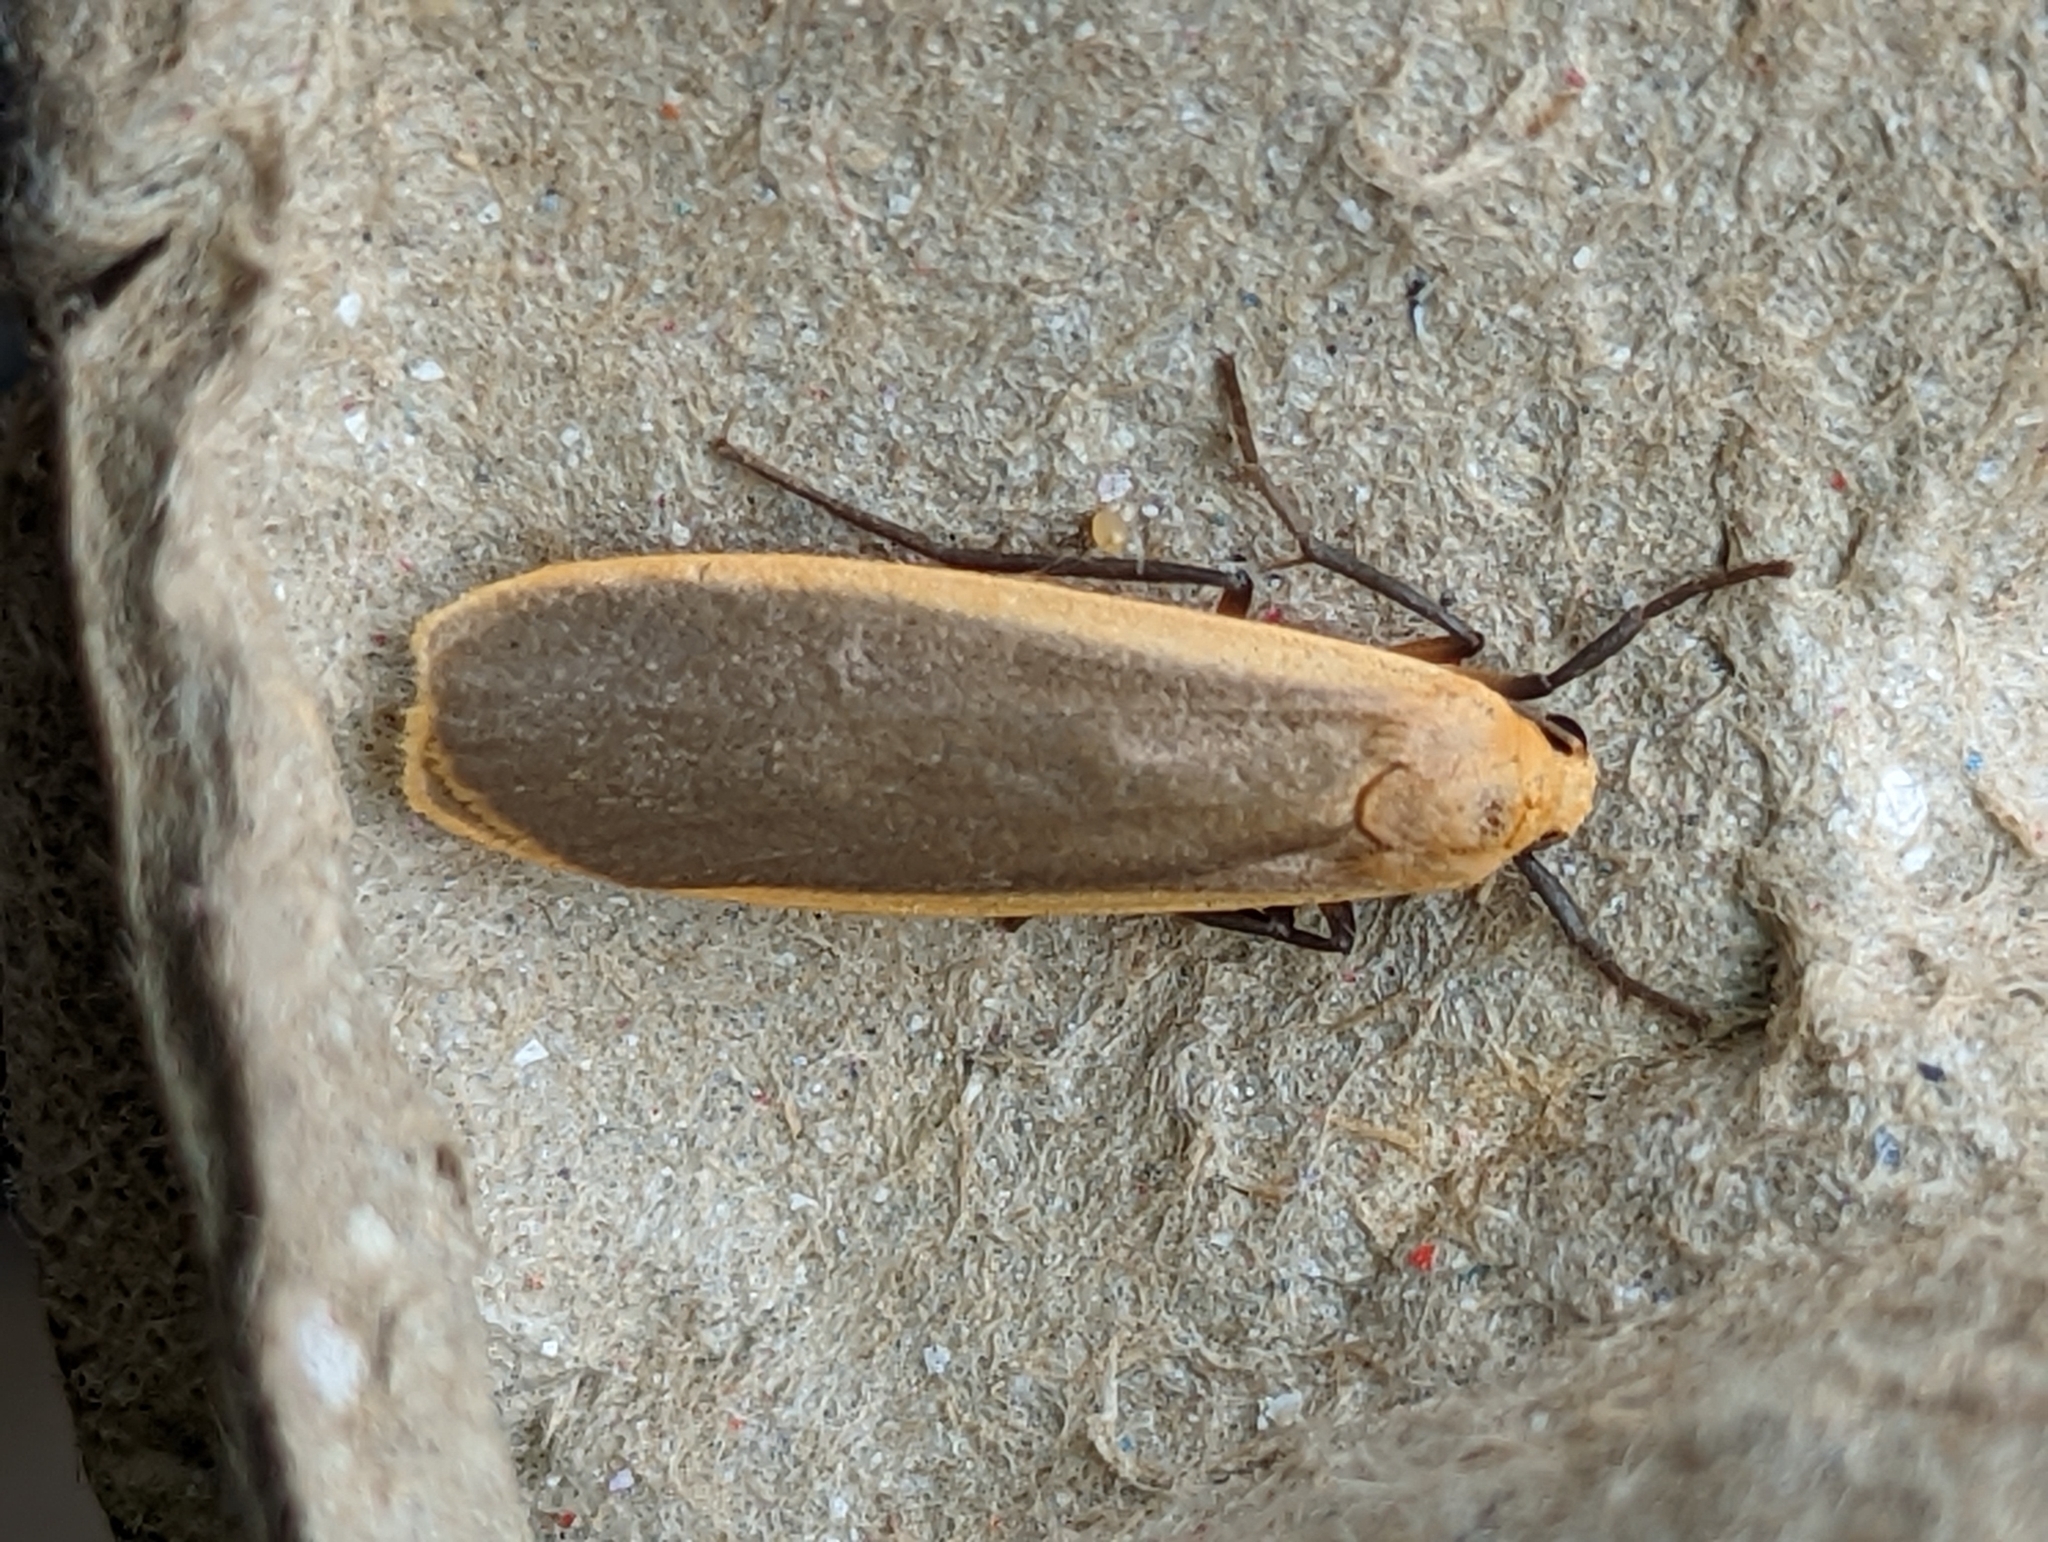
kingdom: Animalia
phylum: Arthropoda
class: Insecta
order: Lepidoptera
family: Erebidae
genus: Katha
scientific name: Katha depressa
